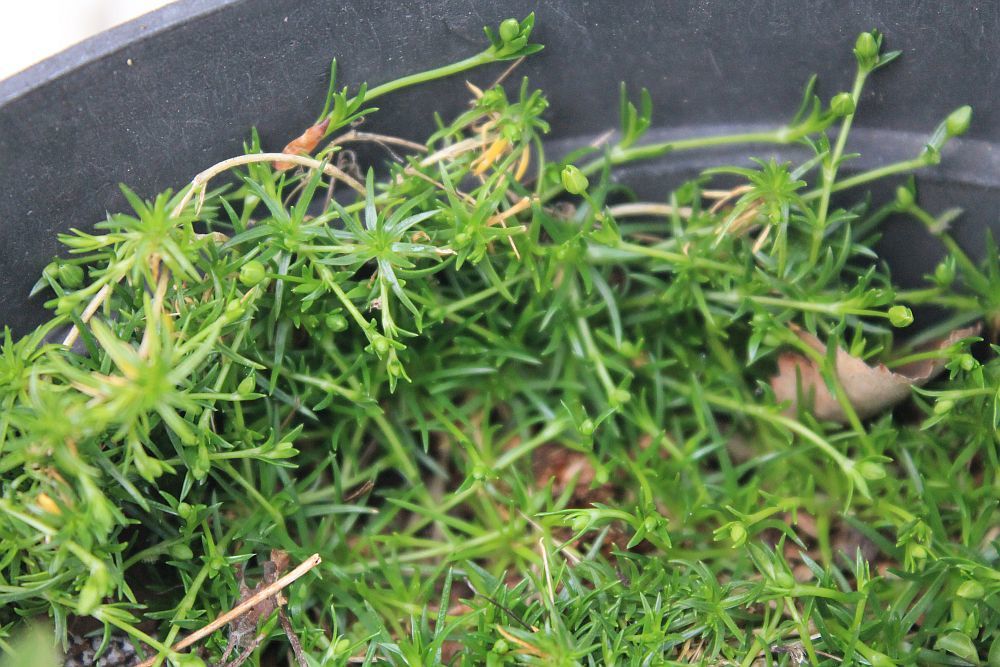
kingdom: Plantae
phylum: Tracheophyta
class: Magnoliopsida
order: Caryophyllales
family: Caryophyllaceae
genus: Sagina
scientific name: Sagina procumbens
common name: Procumbent pearlwort
